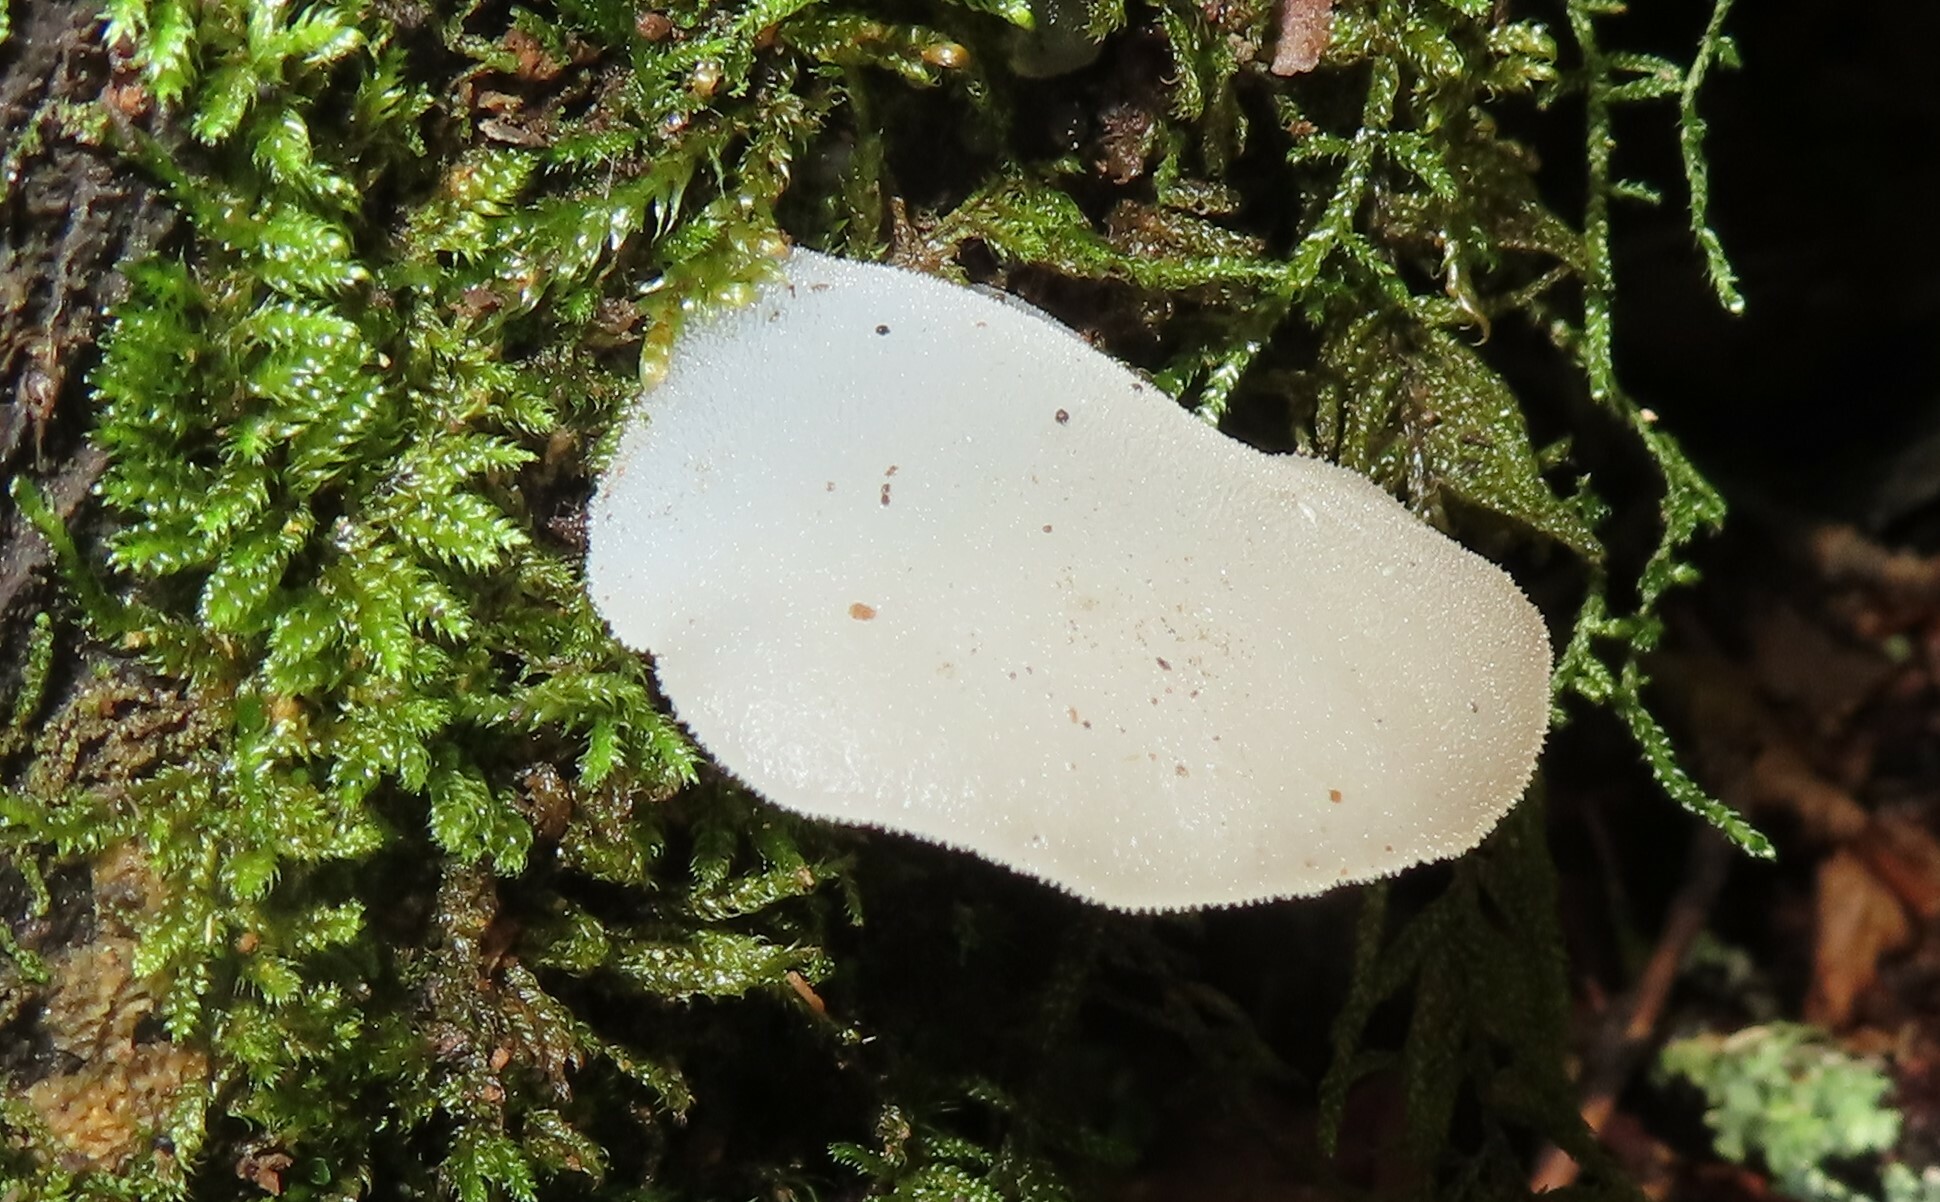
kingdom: Fungi
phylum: Basidiomycota
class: Agaricomycetes
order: Auriculariales
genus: Pseudohydnum
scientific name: Pseudohydnum gelatinosum
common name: Jelly tongue
